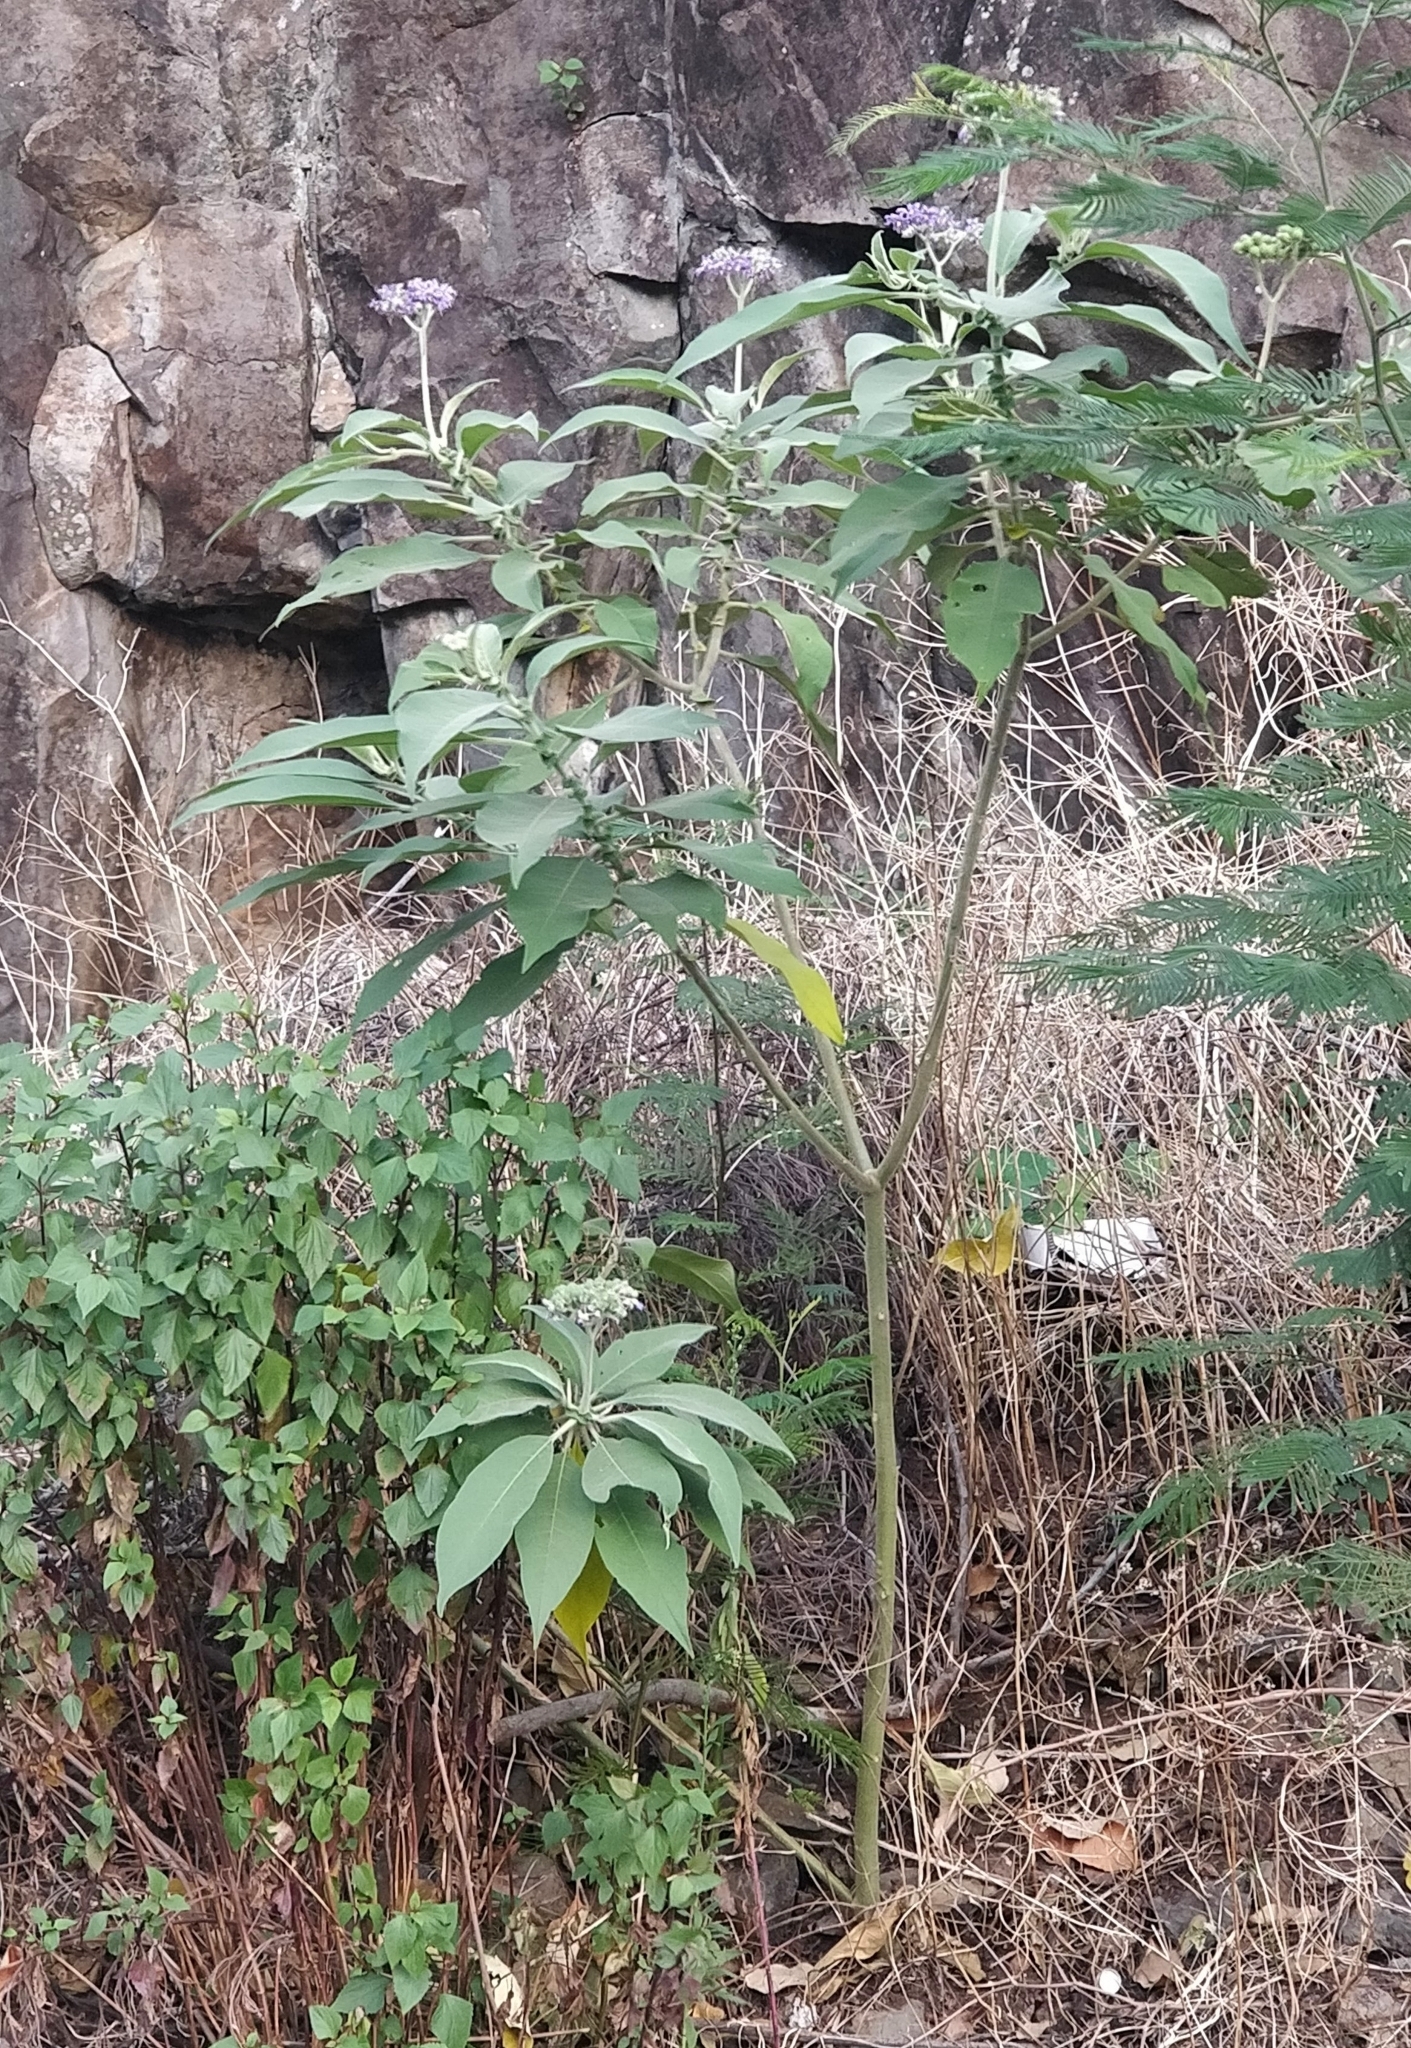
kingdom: Plantae
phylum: Tracheophyta
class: Magnoliopsida
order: Solanales
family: Solanaceae
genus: Solanum
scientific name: Solanum mauritianum
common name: Earleaf nightshade
